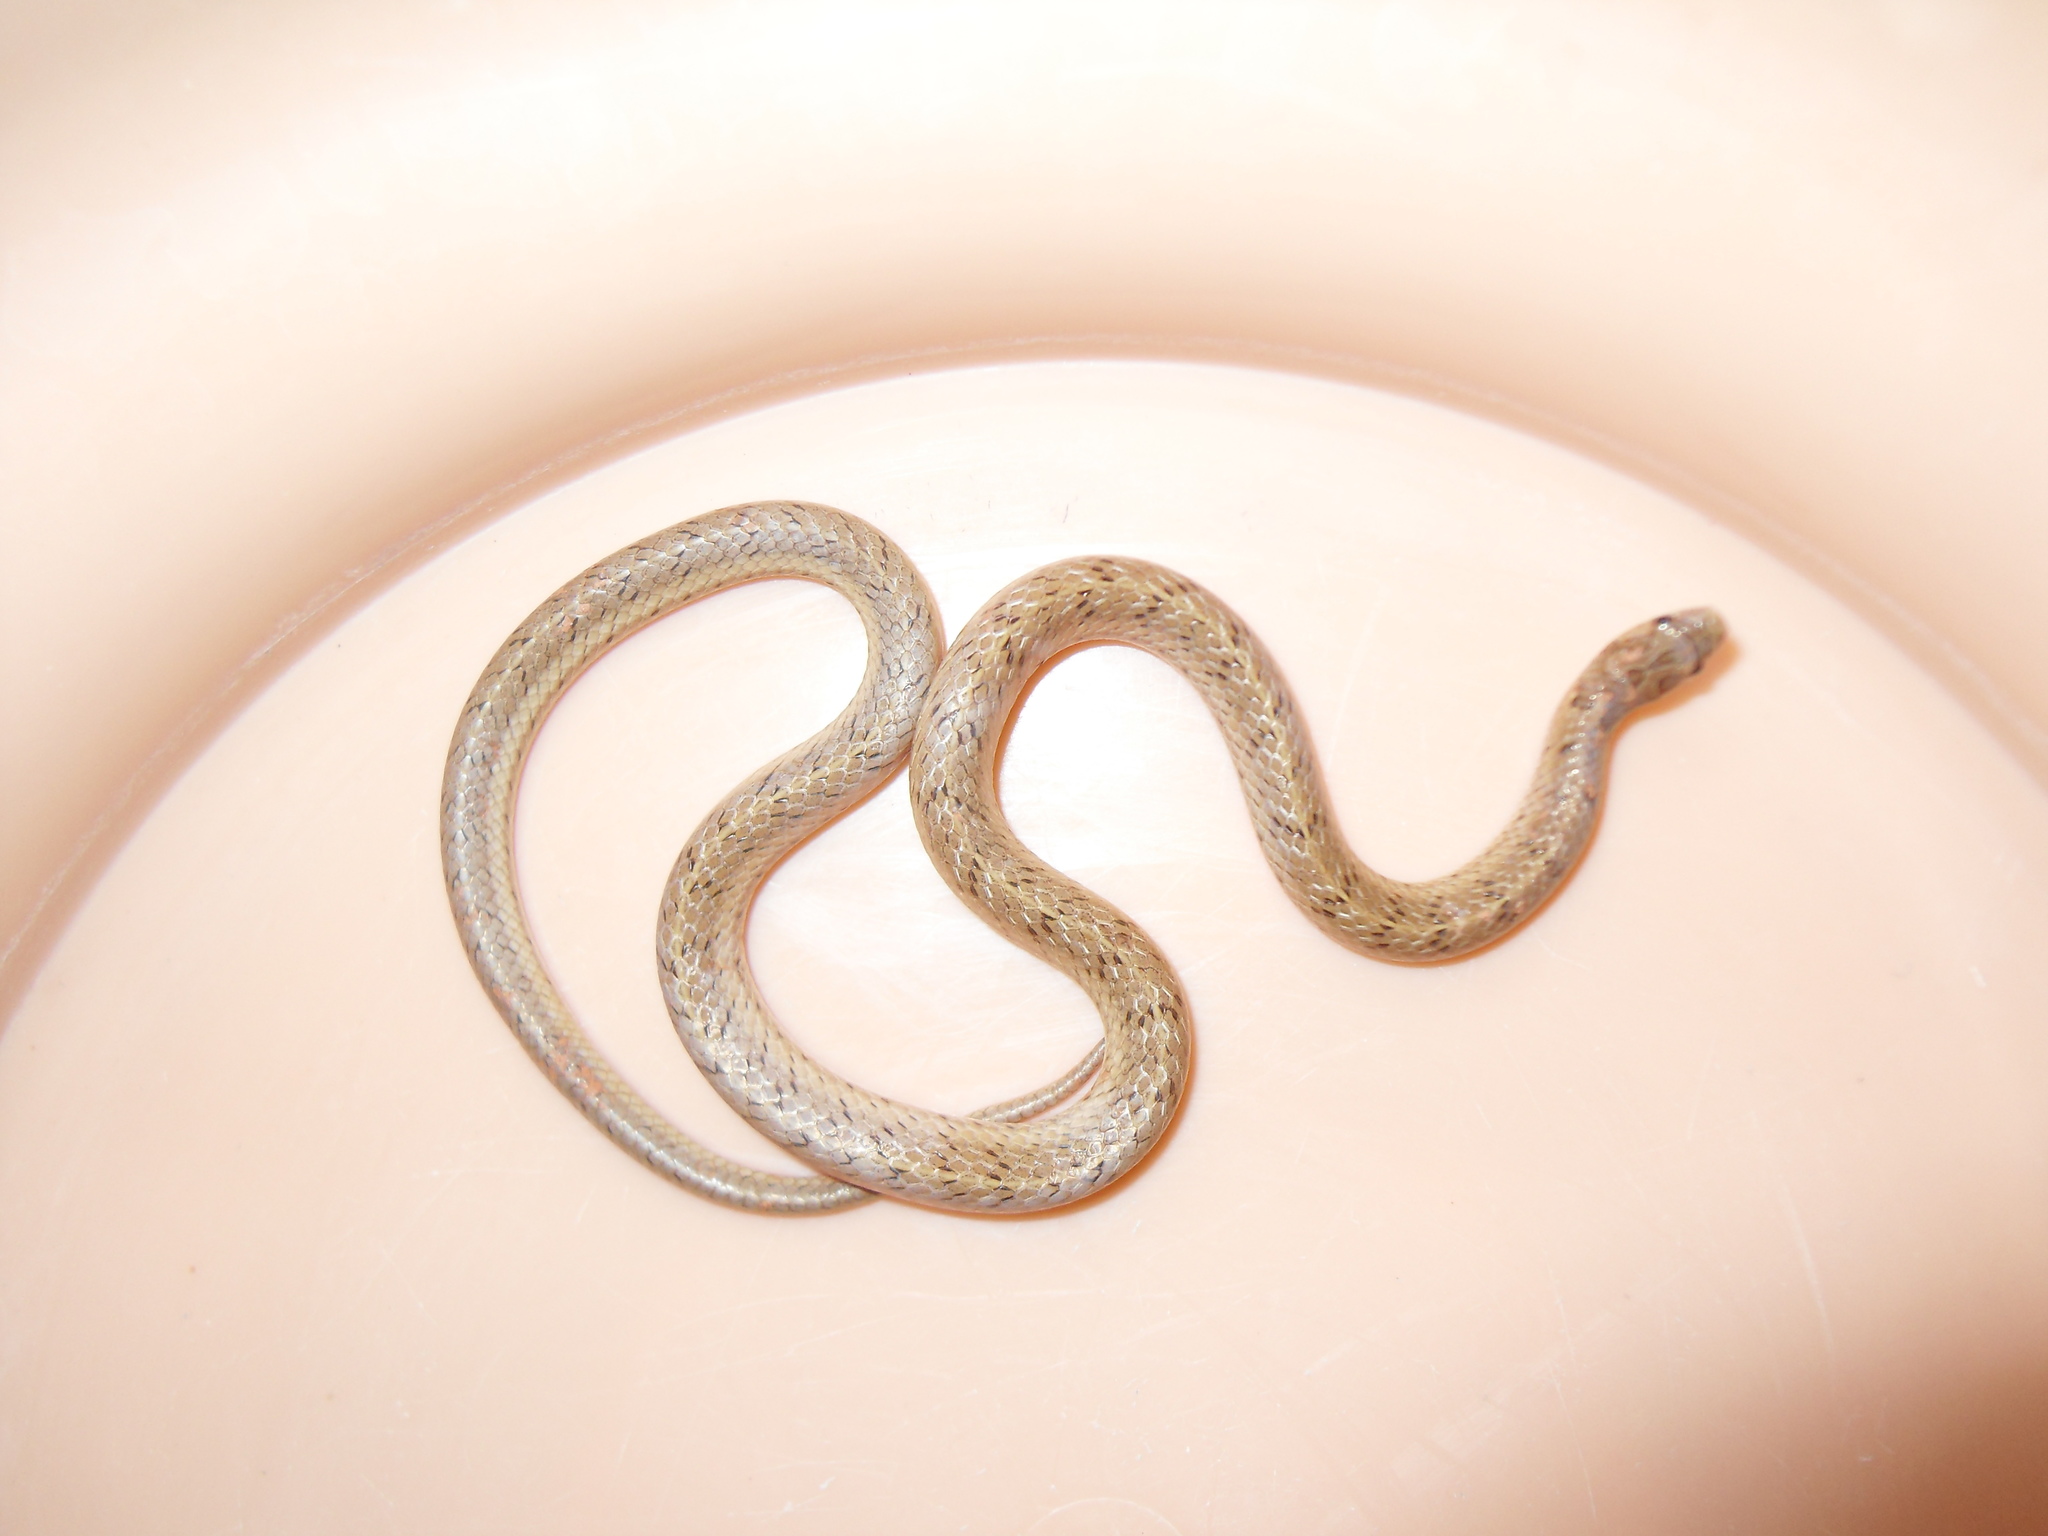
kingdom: Animalia
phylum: Chordata
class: Squamata
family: Colubridae
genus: Oligodon
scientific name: Oligodon taeniolatus
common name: Loos snake
